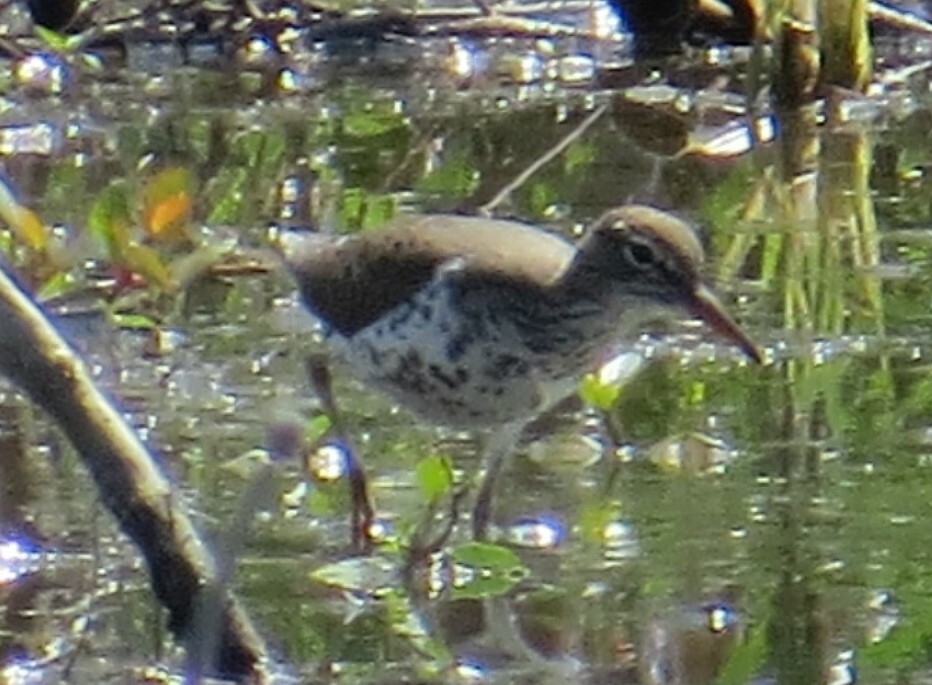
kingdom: Animalia
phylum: Chordata
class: Aves
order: Charadriiformes
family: Scolopacidae
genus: Actitis
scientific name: Actitis macularius
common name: Spotted sandpiper
